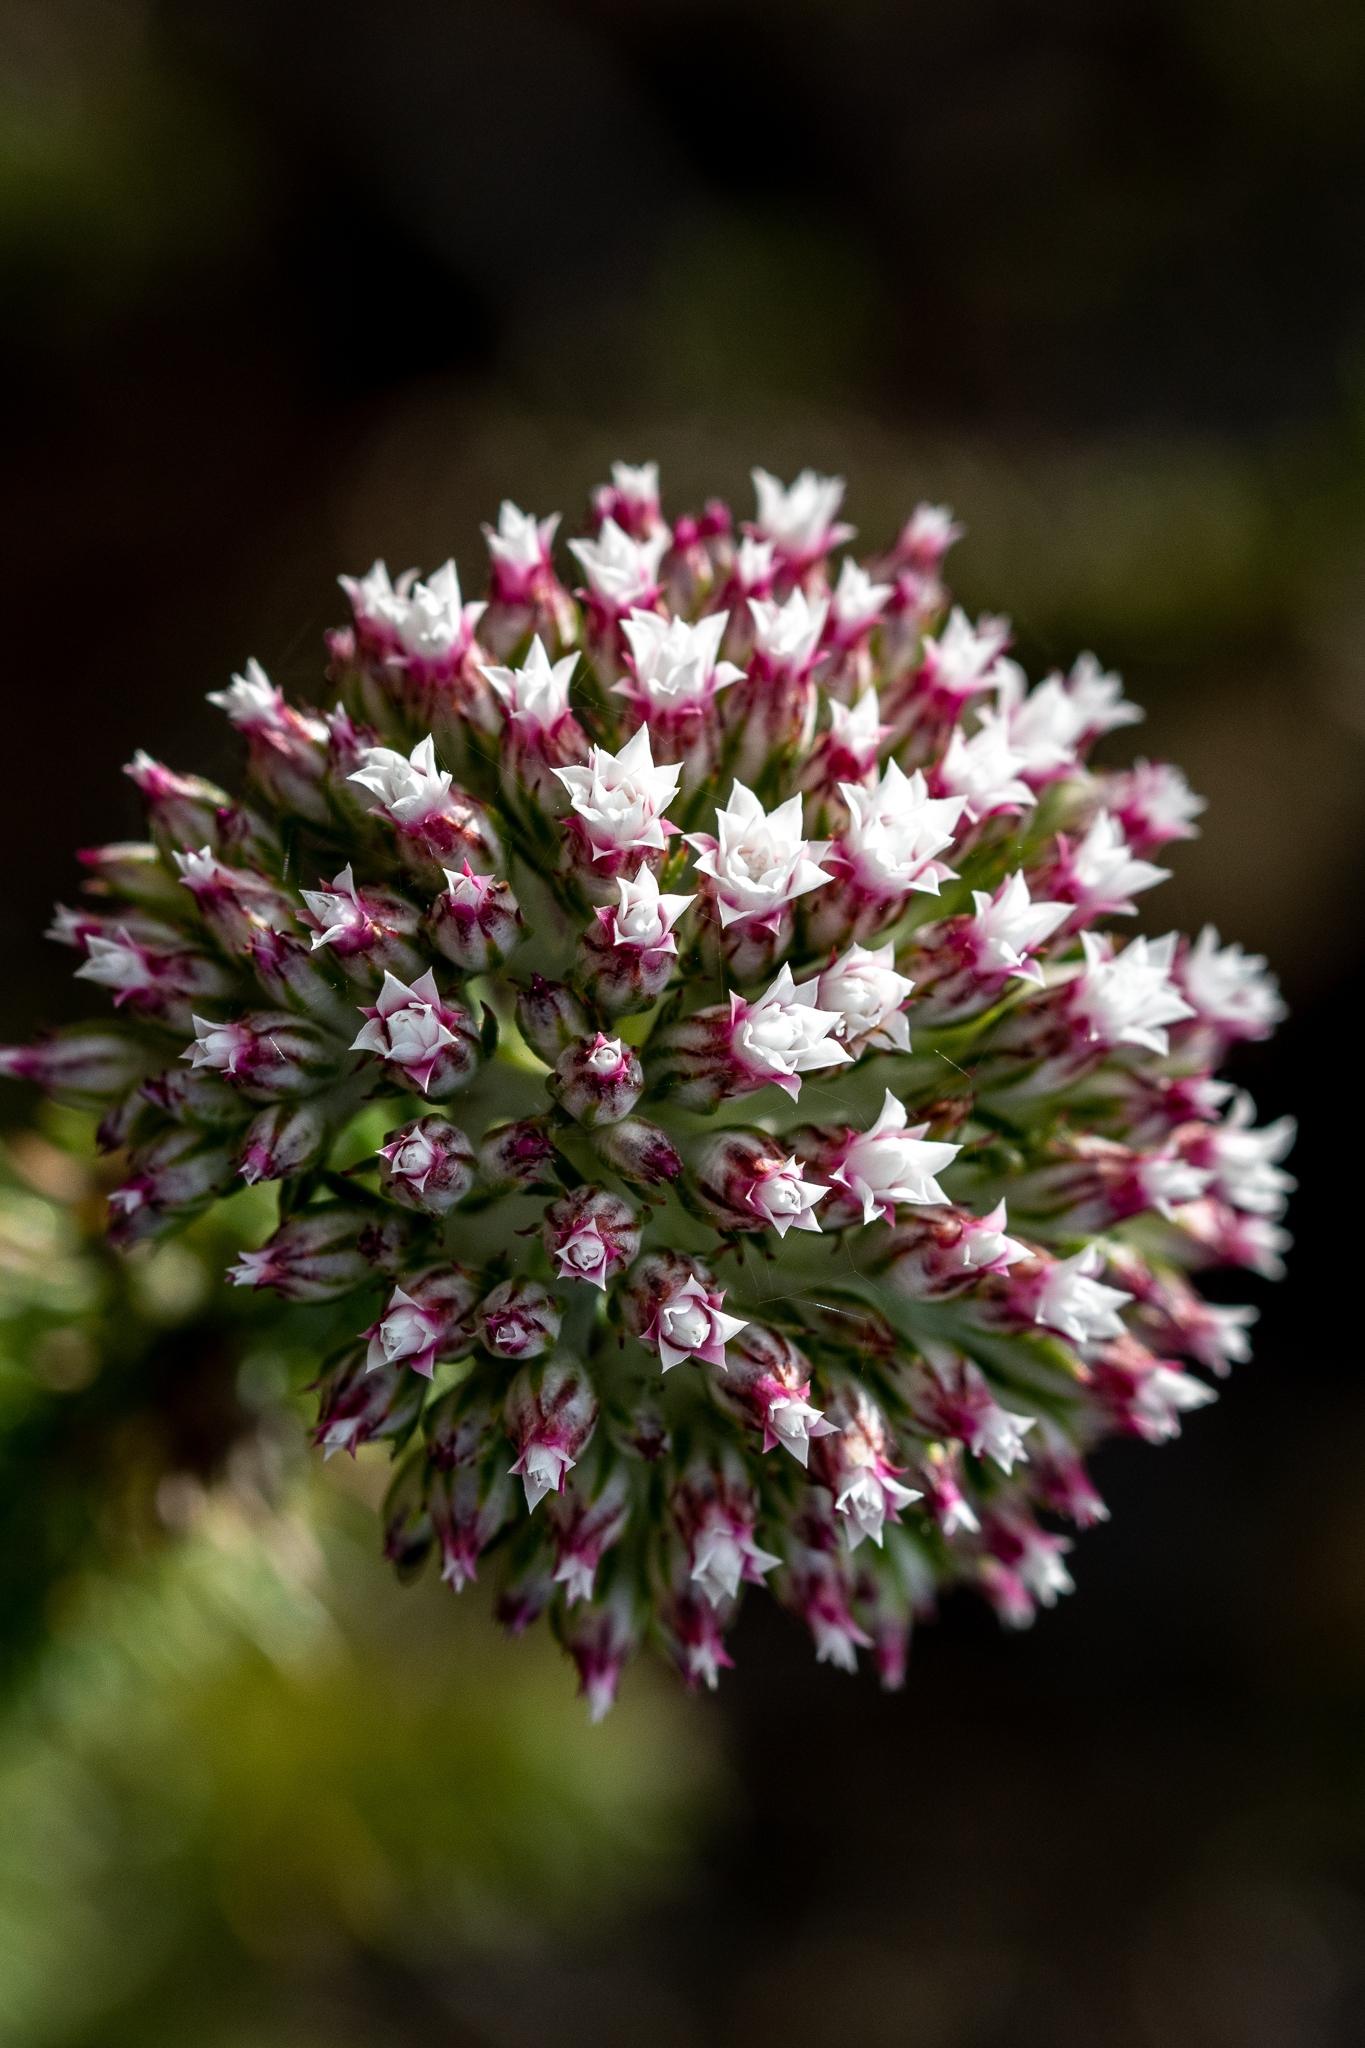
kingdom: Plantae
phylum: Tracheophyta
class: Magnoliopsida
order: Asterales
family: Asteraceae
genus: Metalasia
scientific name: Metalasia lichtensteinii
